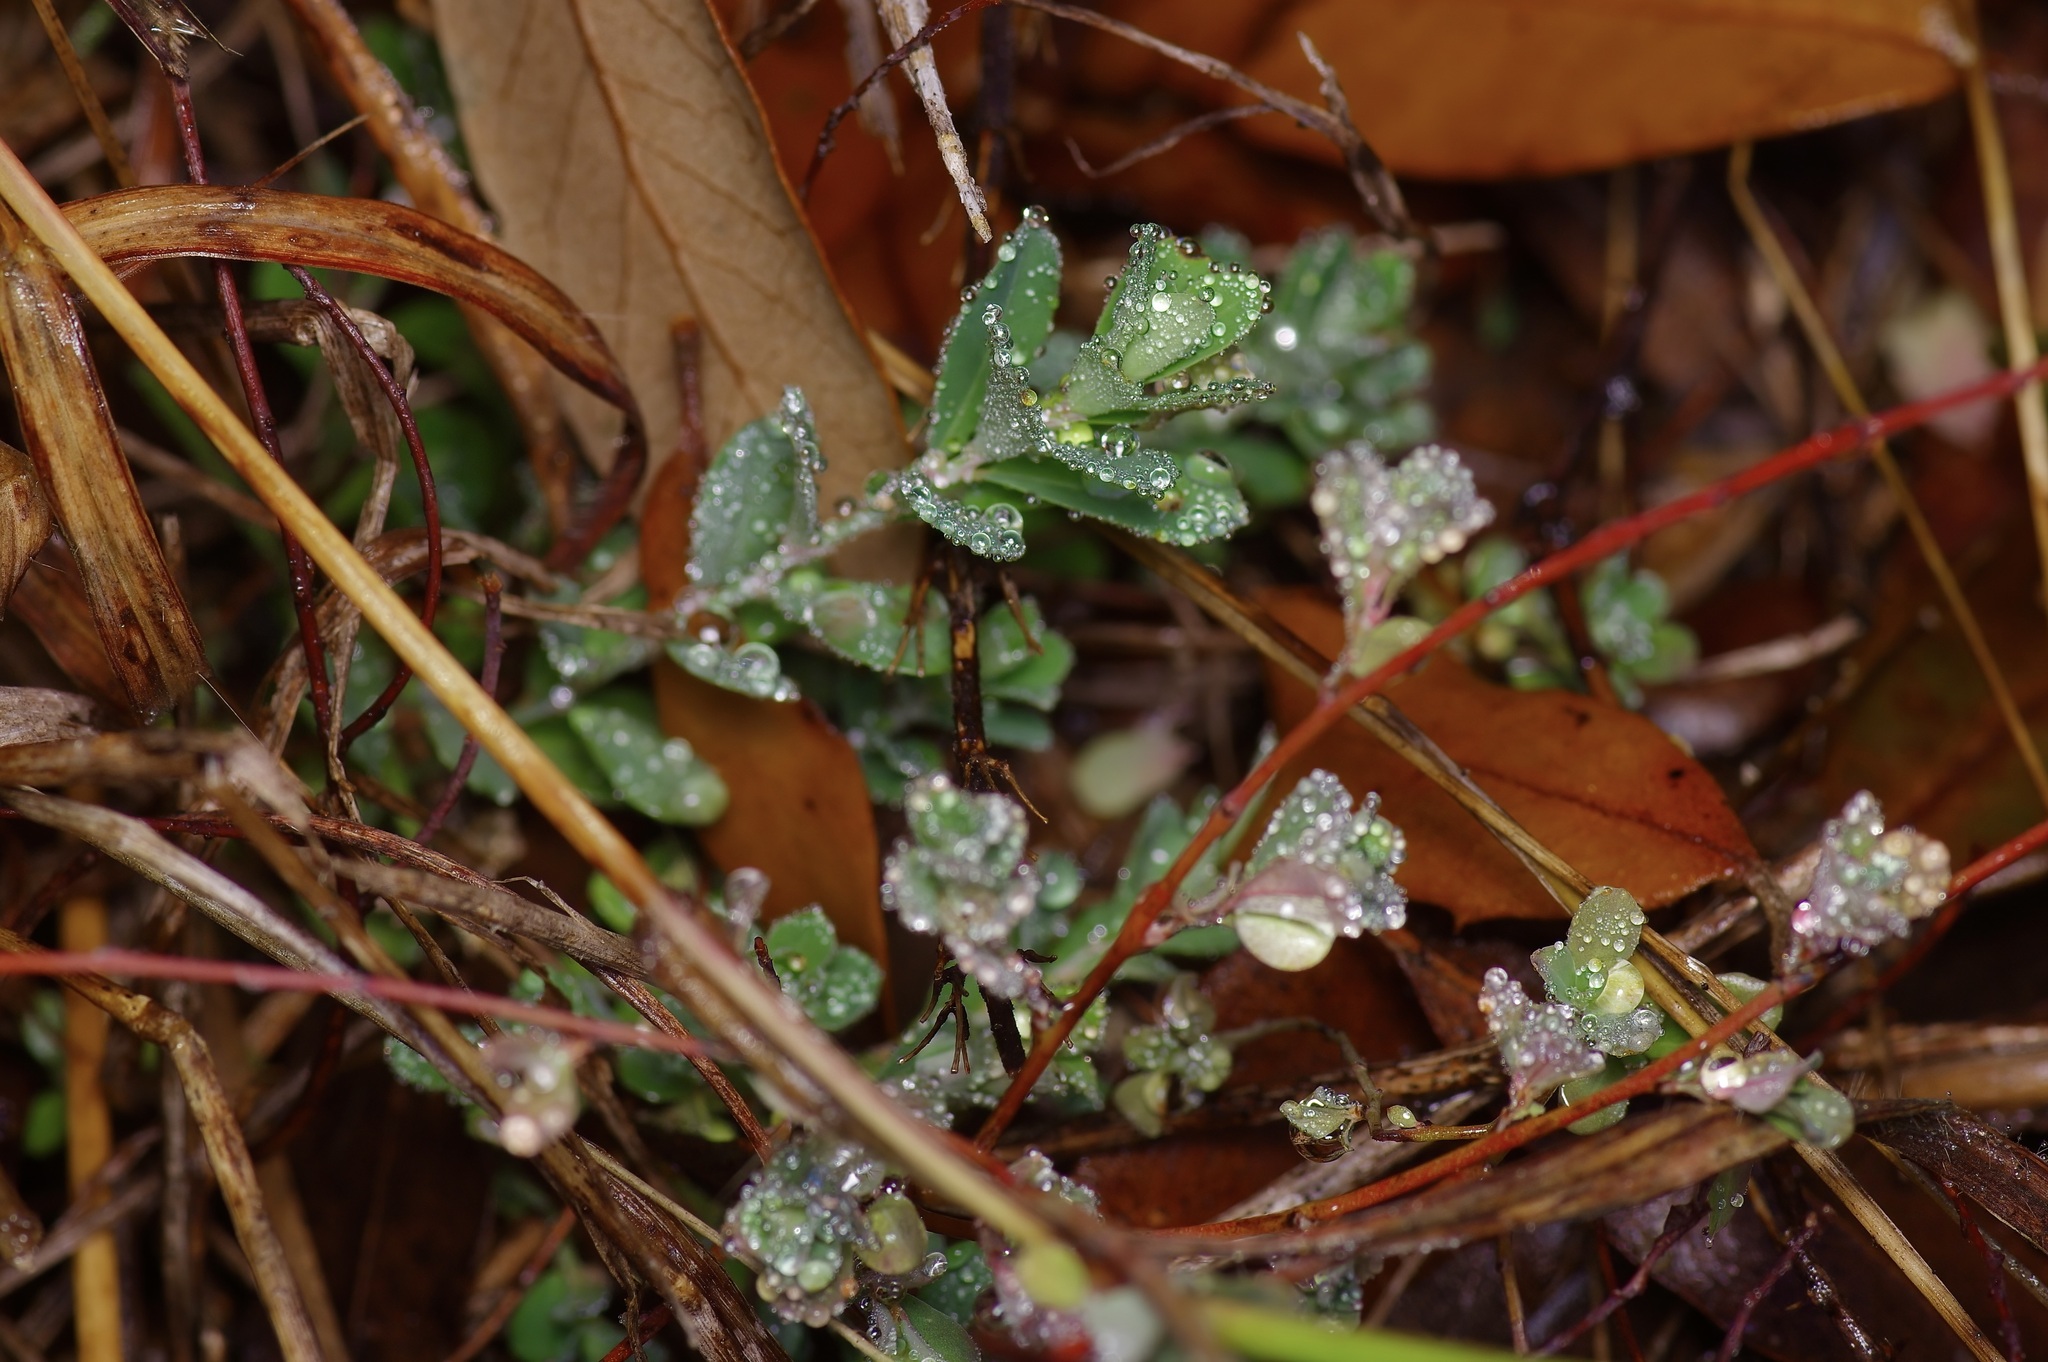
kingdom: Plantae
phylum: Tracheophyta
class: Magnoliopsida
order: Malpighiales
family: Phyllanthaceae
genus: Phyllanthus
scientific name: Phyllanthus polygonoides
